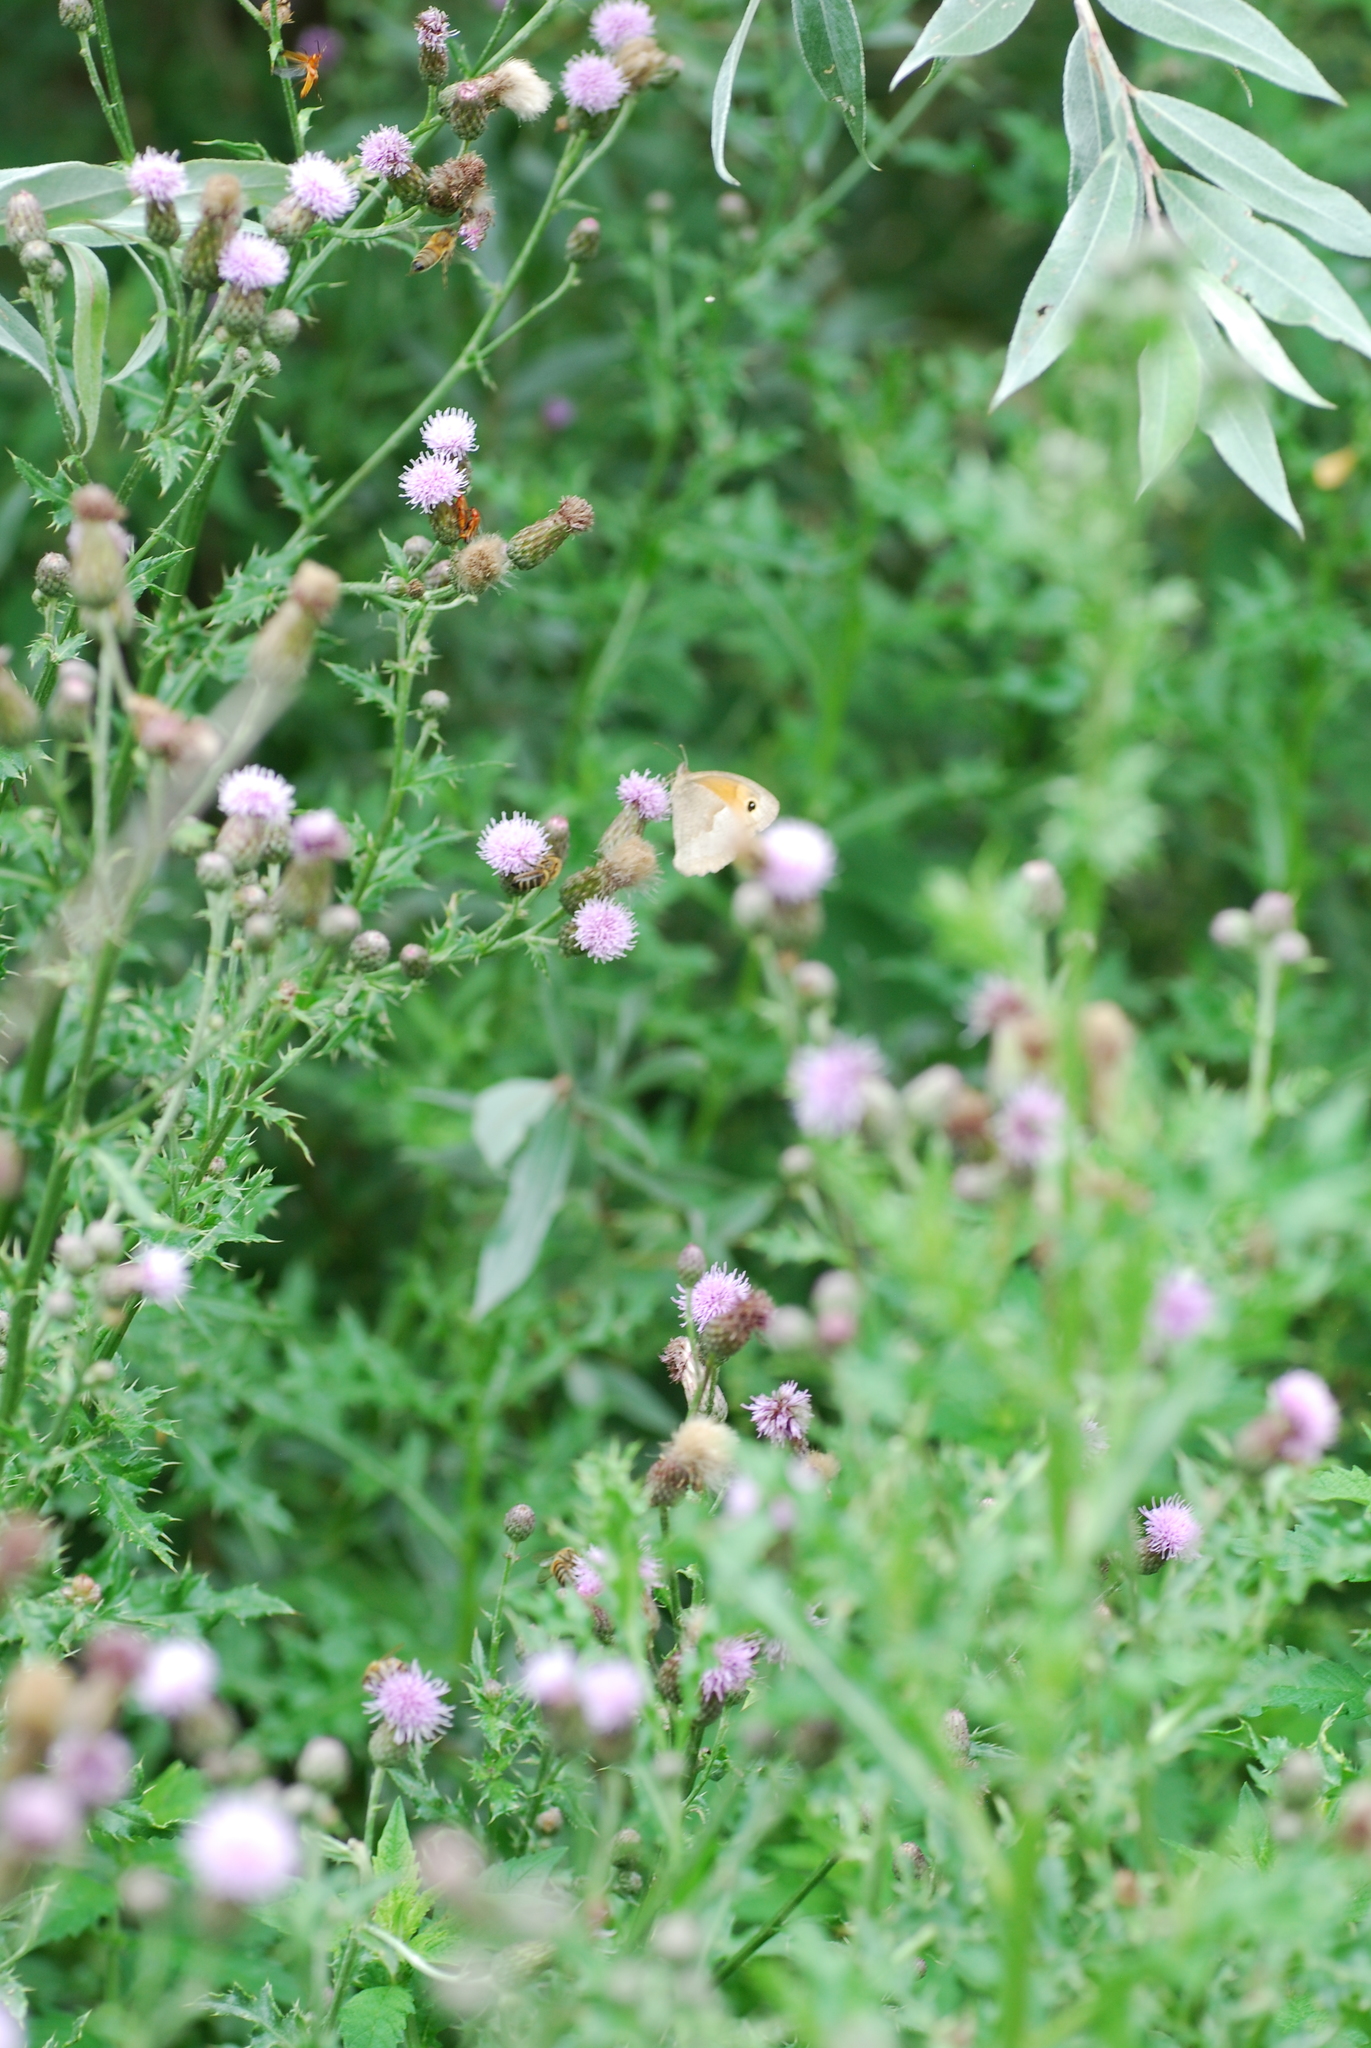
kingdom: Animalia
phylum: Arthropoda
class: Insecta
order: Lepidoptera
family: Nymphalidae
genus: Maniola
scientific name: Maniola jurtina
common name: Meadow brown
